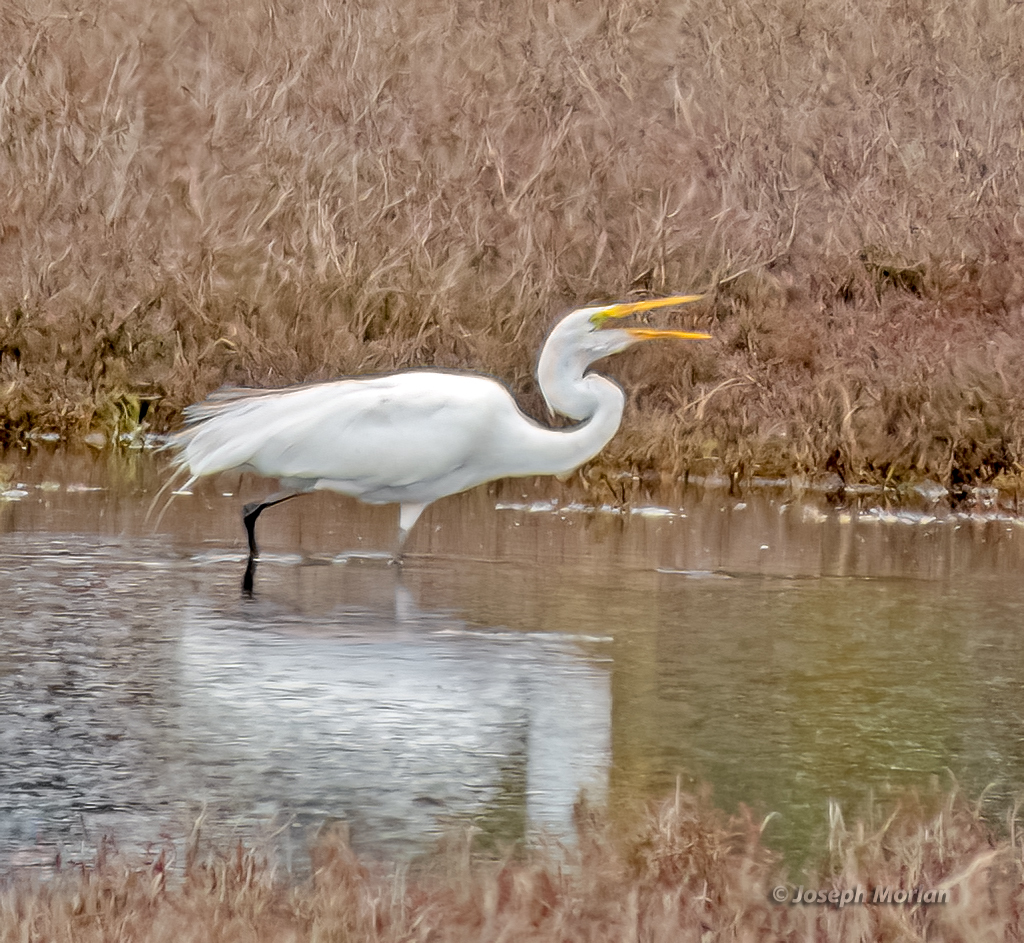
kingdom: Animalia
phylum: Chordata
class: Aves
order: Pelecaniformes
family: Ardeidae
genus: Ardea
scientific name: Ardea alba
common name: Great egret
